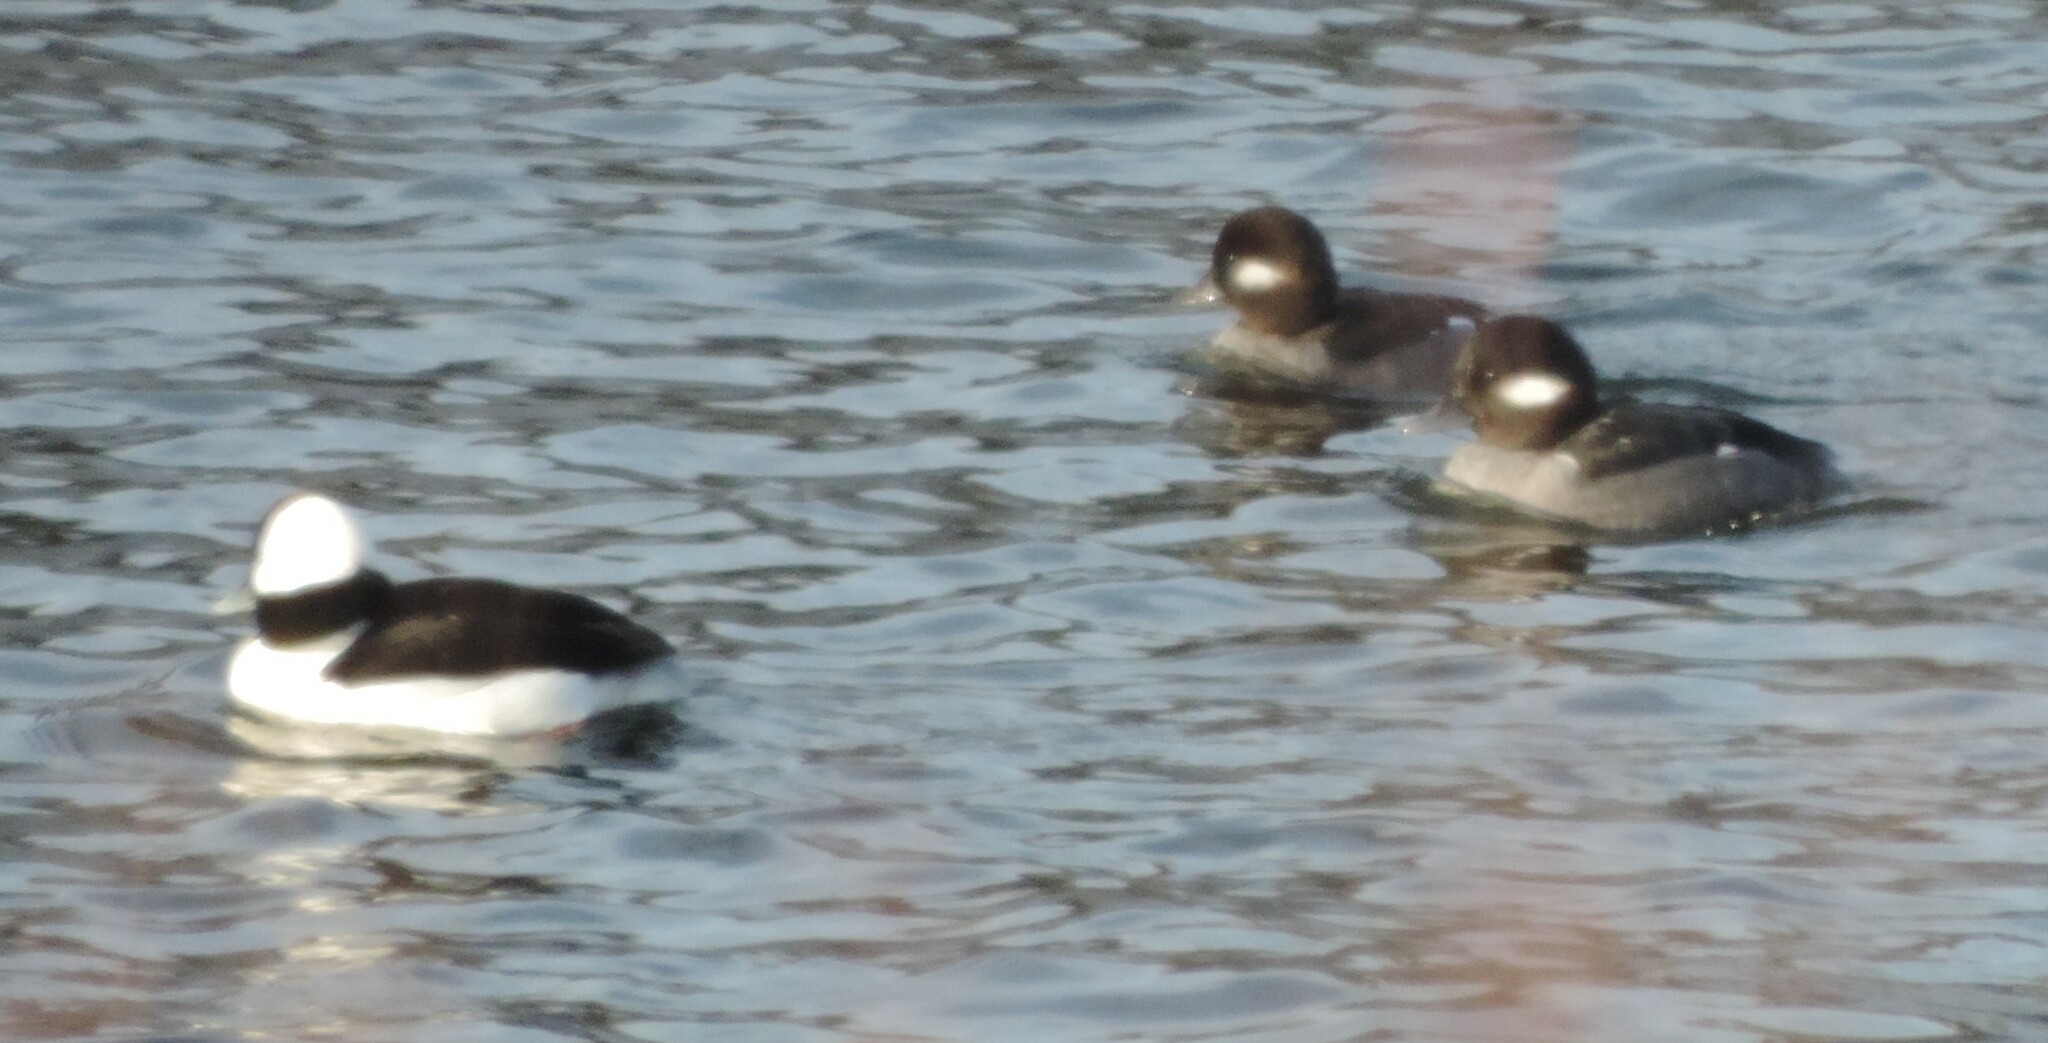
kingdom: Animalia
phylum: Chordata
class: Aves
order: Anseriformes
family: Anatidae
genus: Bucephala
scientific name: Bucephala albeola
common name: Bufflehead
